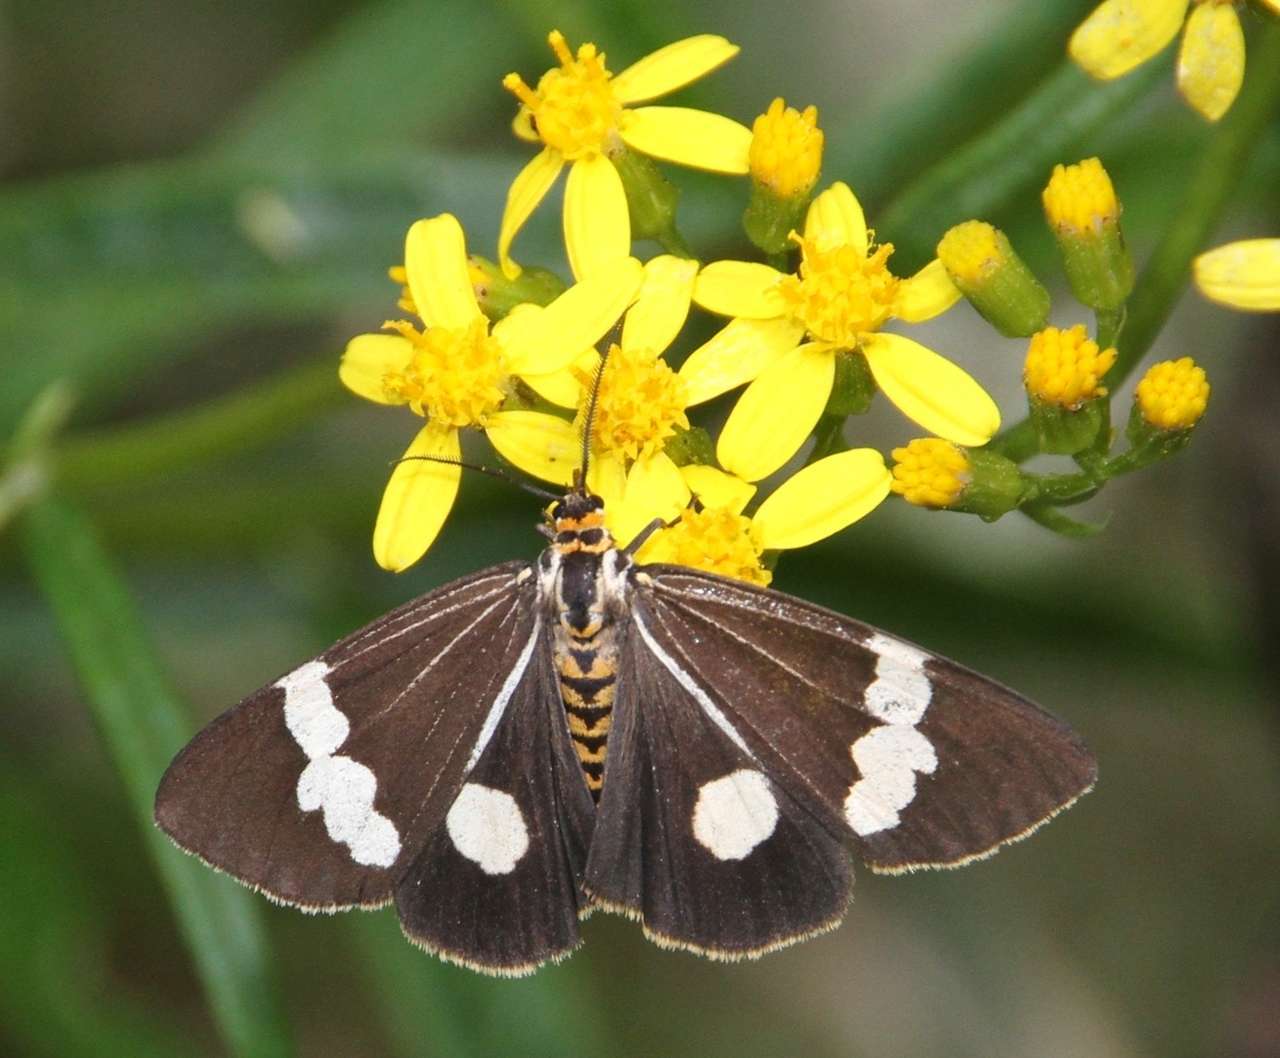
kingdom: Animalia
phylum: Arthropoda
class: Insecta
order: Lepidoptera
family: Erebidae
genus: Nyctemera
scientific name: Nyctemera amicus
